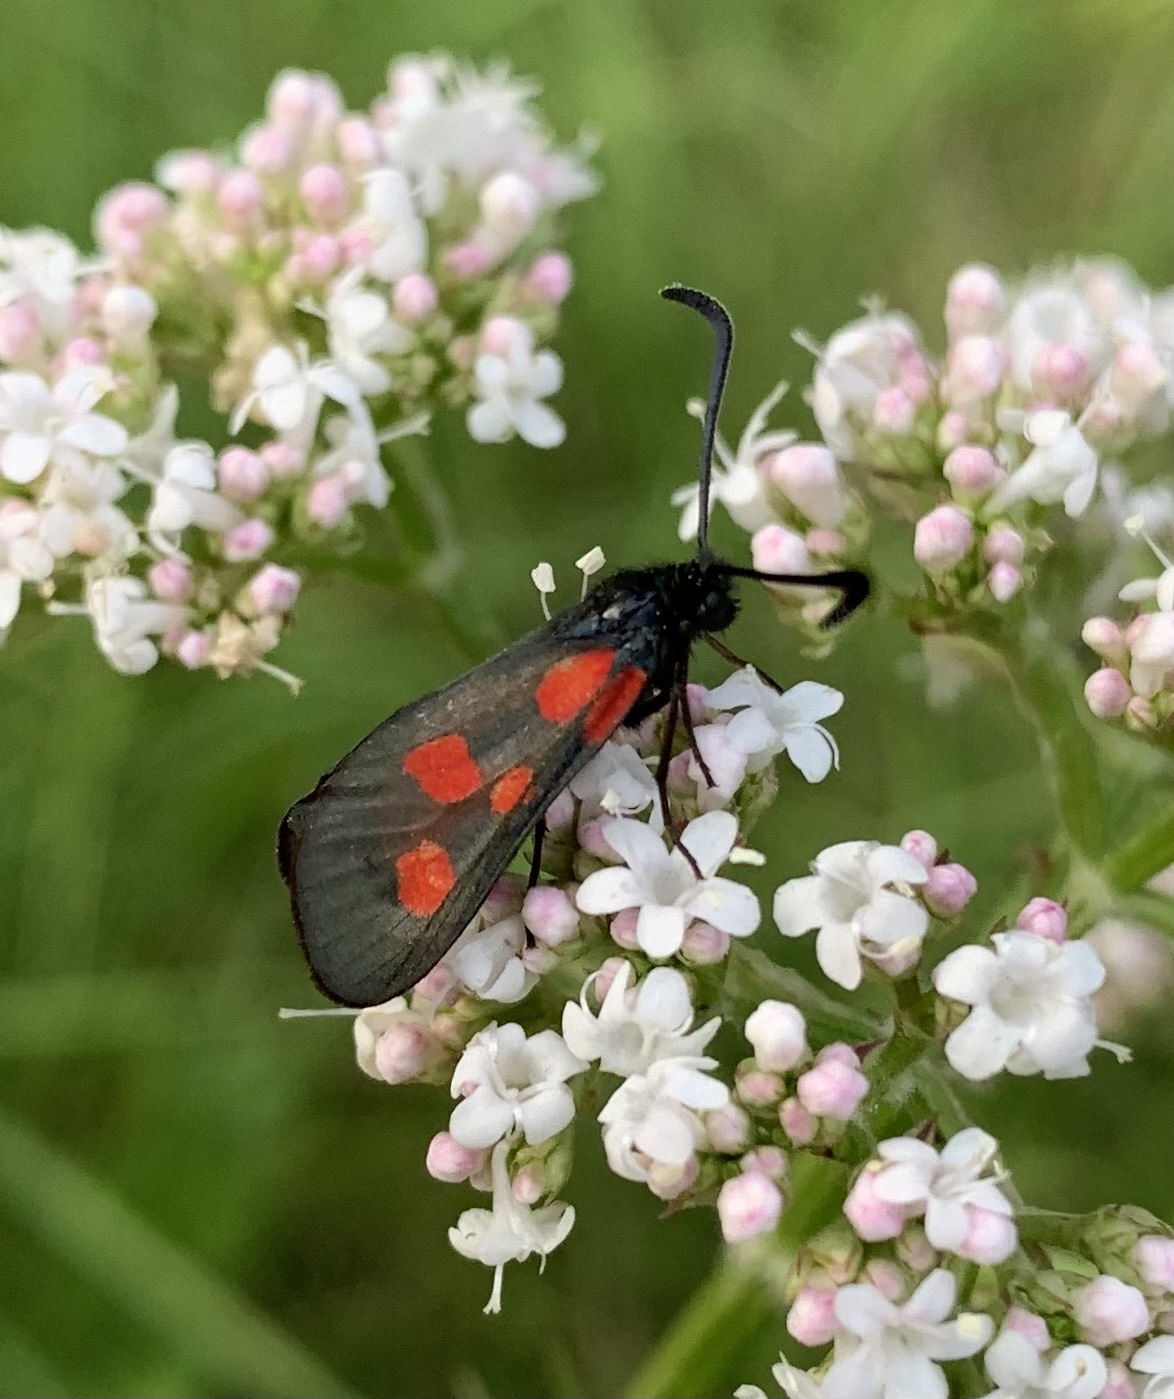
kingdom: Animalia
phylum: Arthropoda
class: Insecta
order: Lepidoptera
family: Zygaenidae
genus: Zygaena
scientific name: Zygaena viciae
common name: New forest burnet
